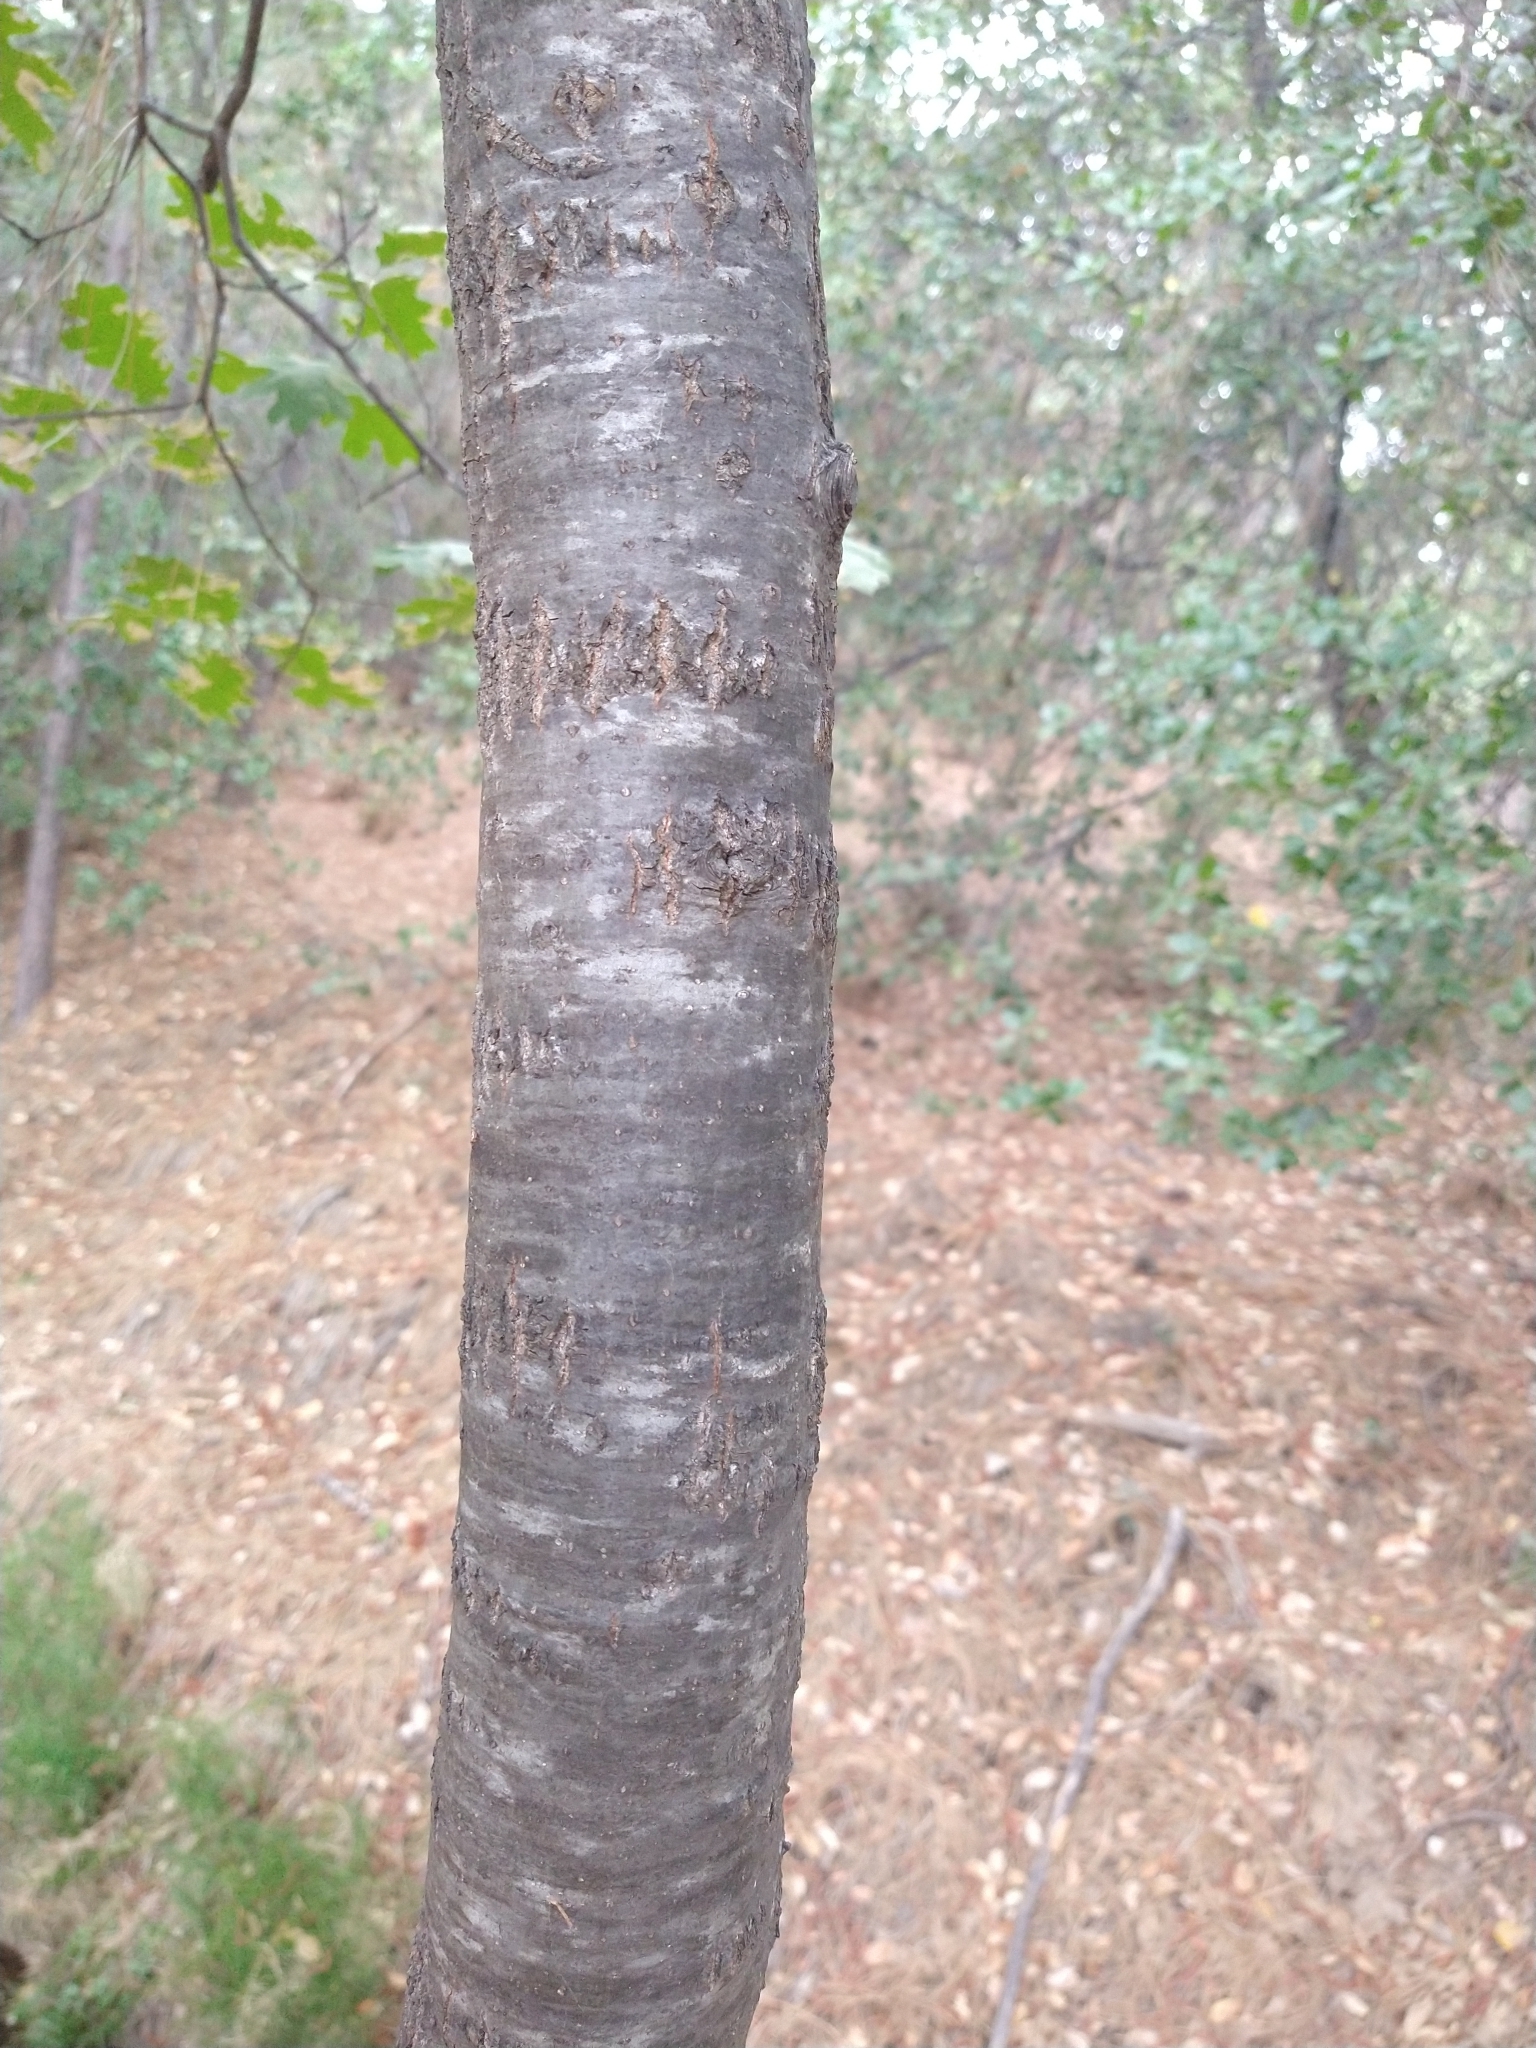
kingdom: Plantae
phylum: Tracheophyta
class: Magnoliopsida
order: Fagales
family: Fagaceae
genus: Quercus
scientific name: Quercus kelloggii
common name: California black oak
